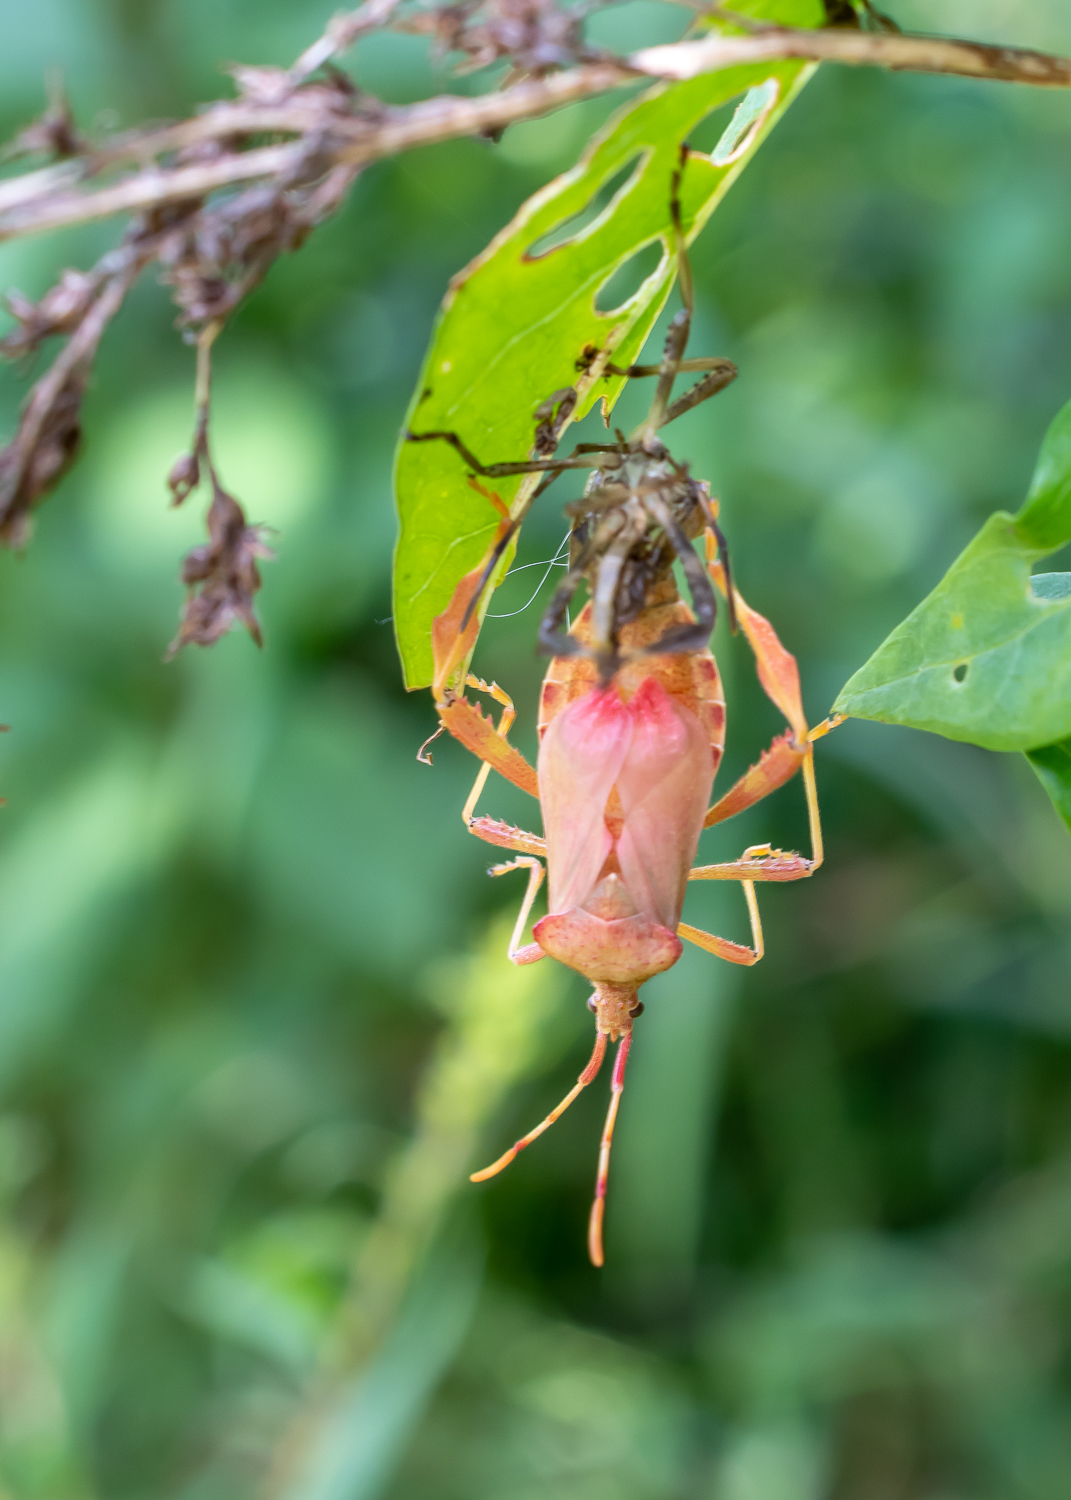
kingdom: Animalia
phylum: Arthropoda
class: Insecta
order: Hemiptera
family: Coreidae
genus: Acanthocephala
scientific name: Acanthocephala terminalis
